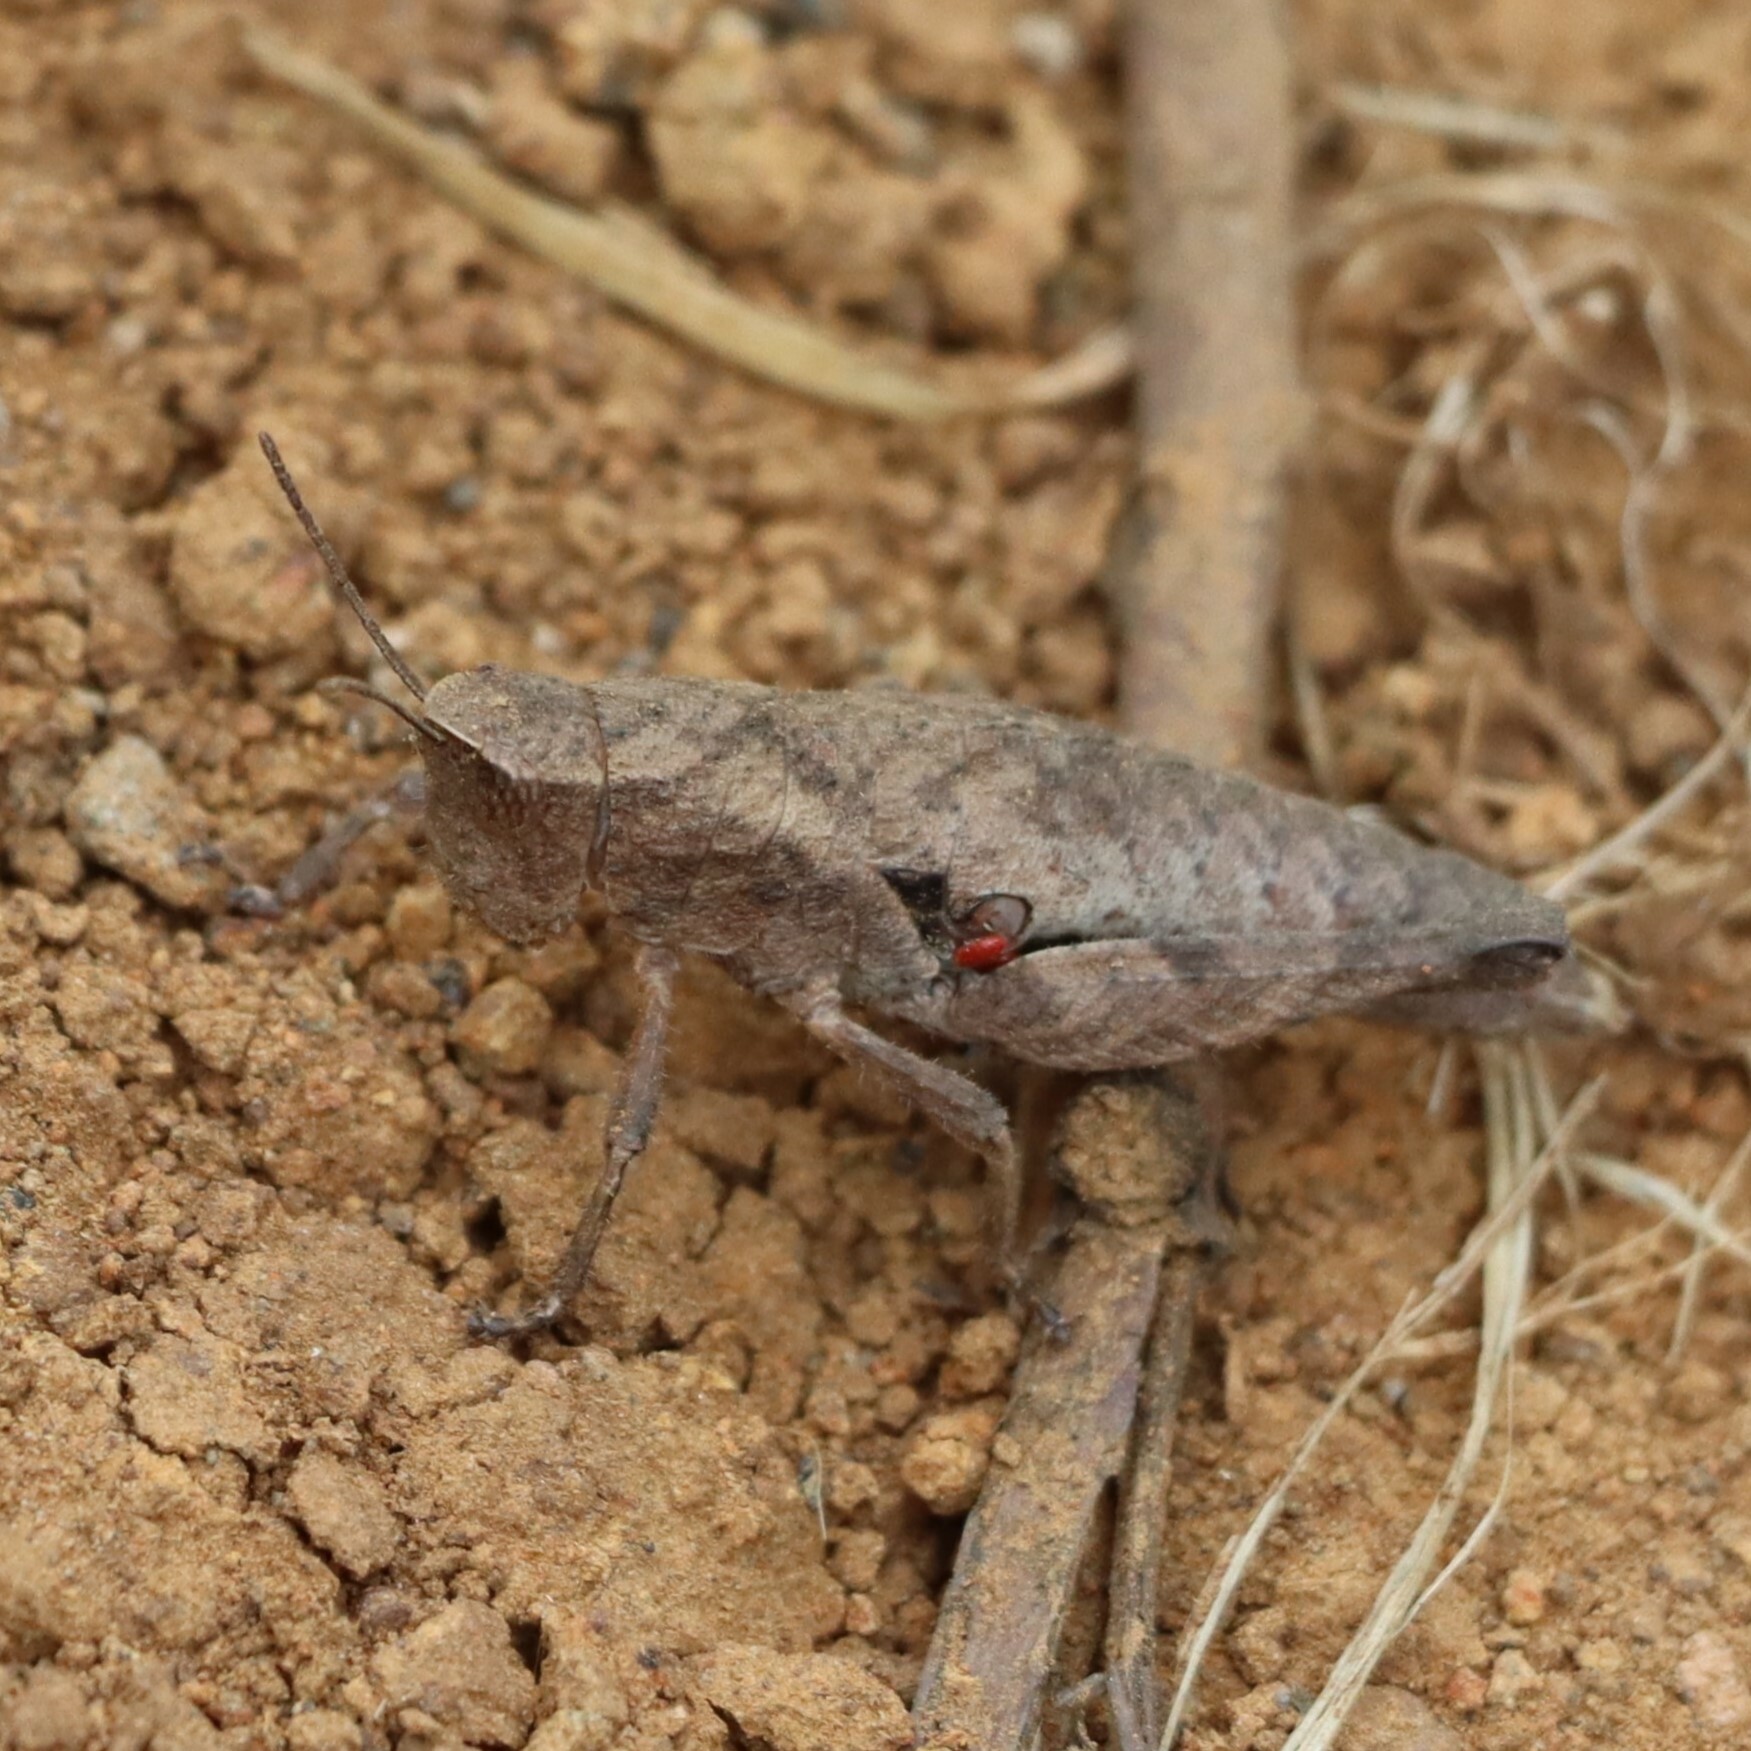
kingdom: Animalia
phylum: Arthropoda
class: Insecta
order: Orthoptera
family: Acrididae
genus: Ixalidium
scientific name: Ixalidium sjostedti
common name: Kilimanjaro drumming grasshopper
